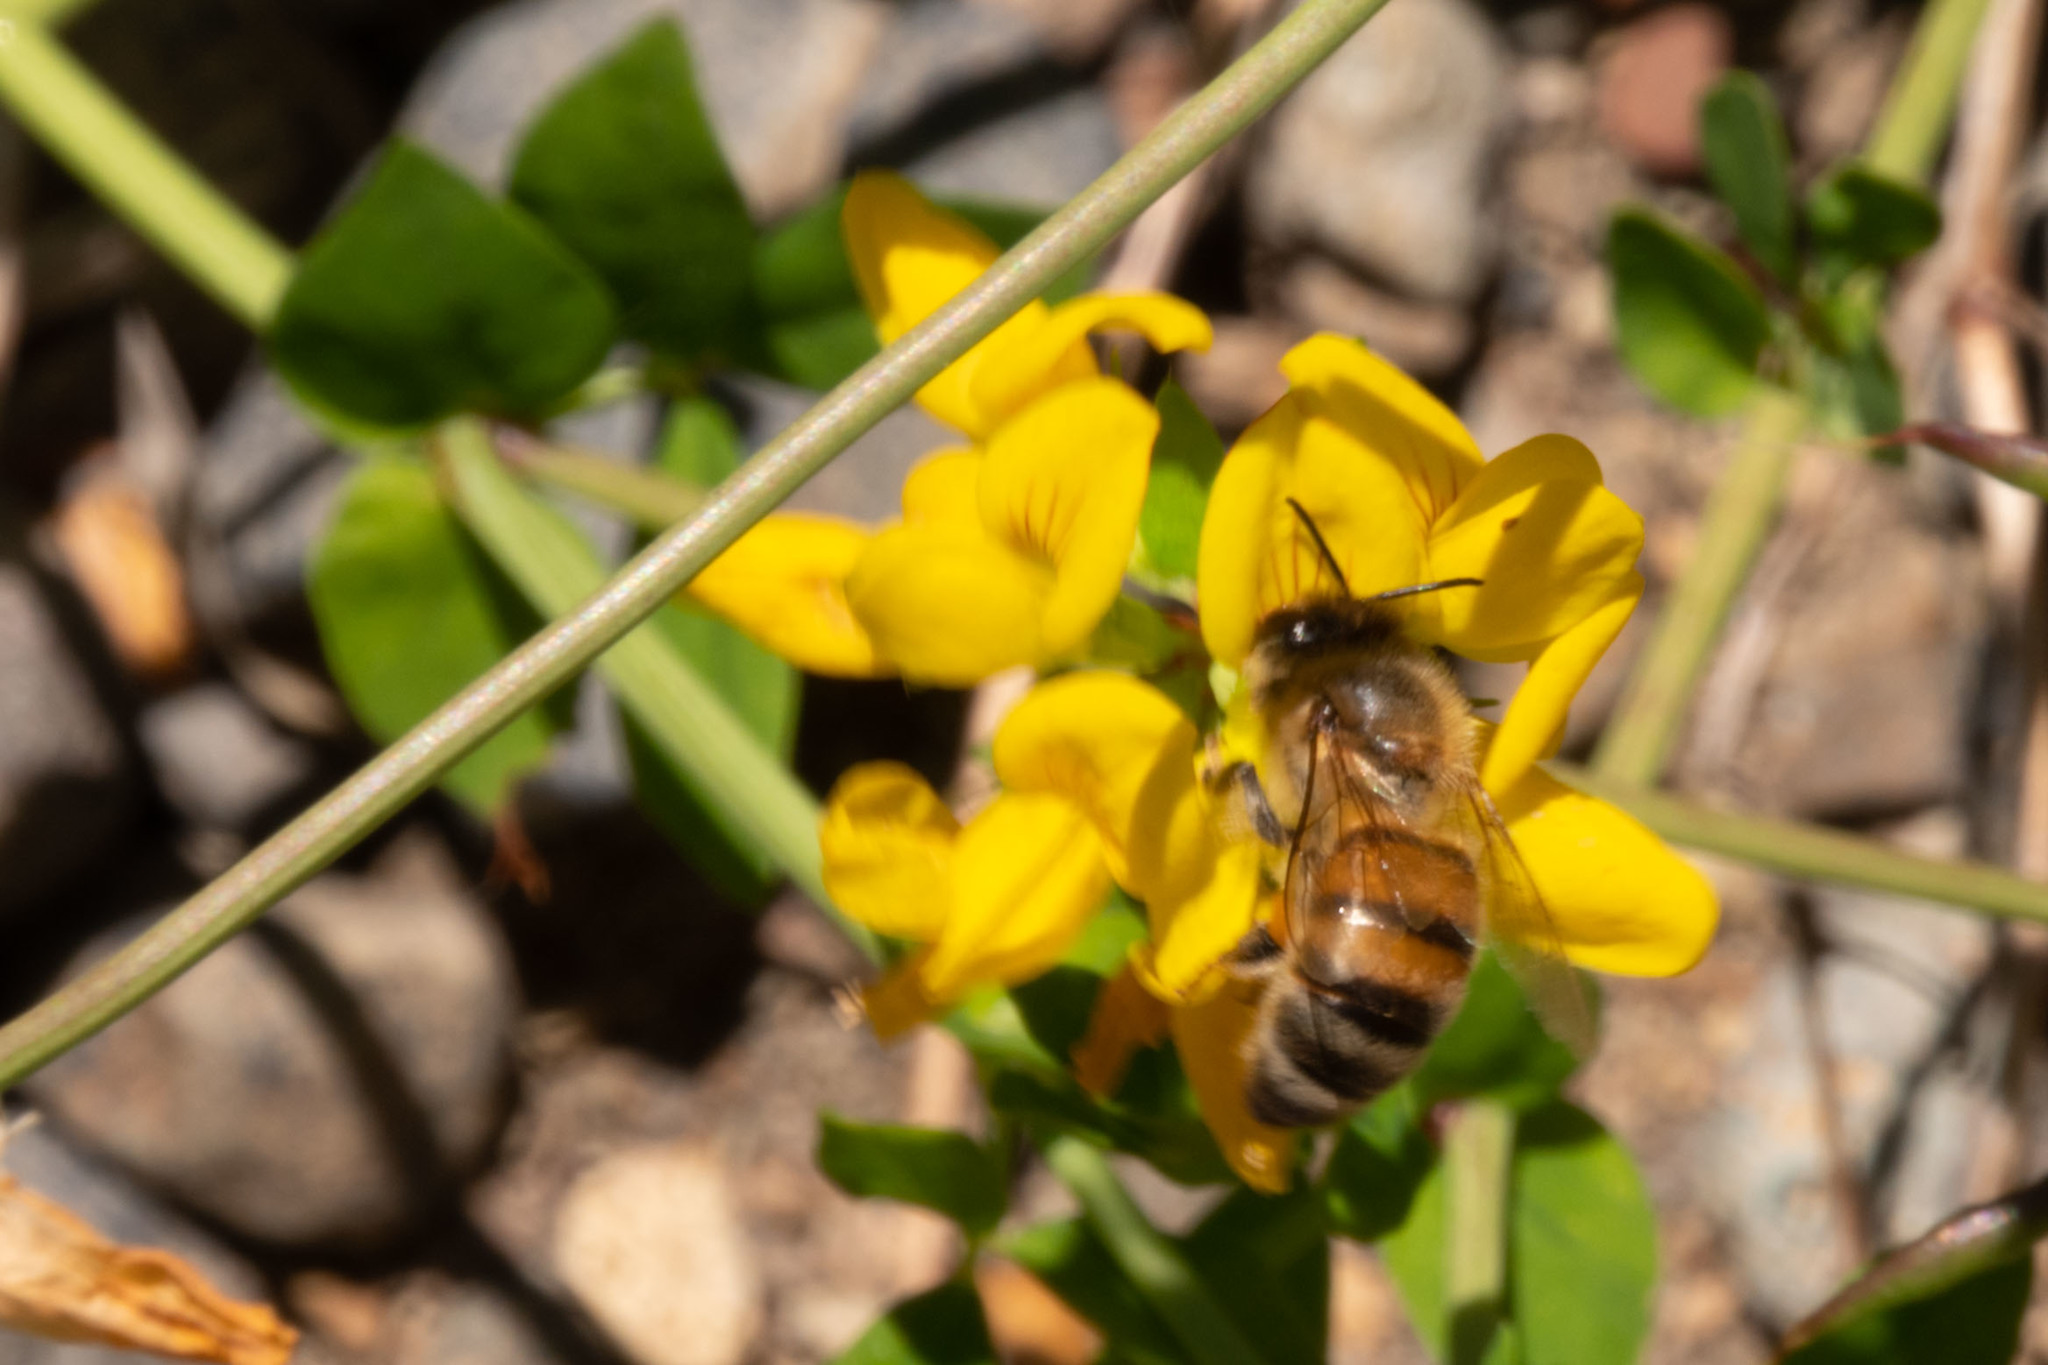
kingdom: Animalia
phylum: Arthropoda
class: Insecta
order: Hymenoptera
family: Apidae
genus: Apis
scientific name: Apis mellifera
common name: Honey bee
